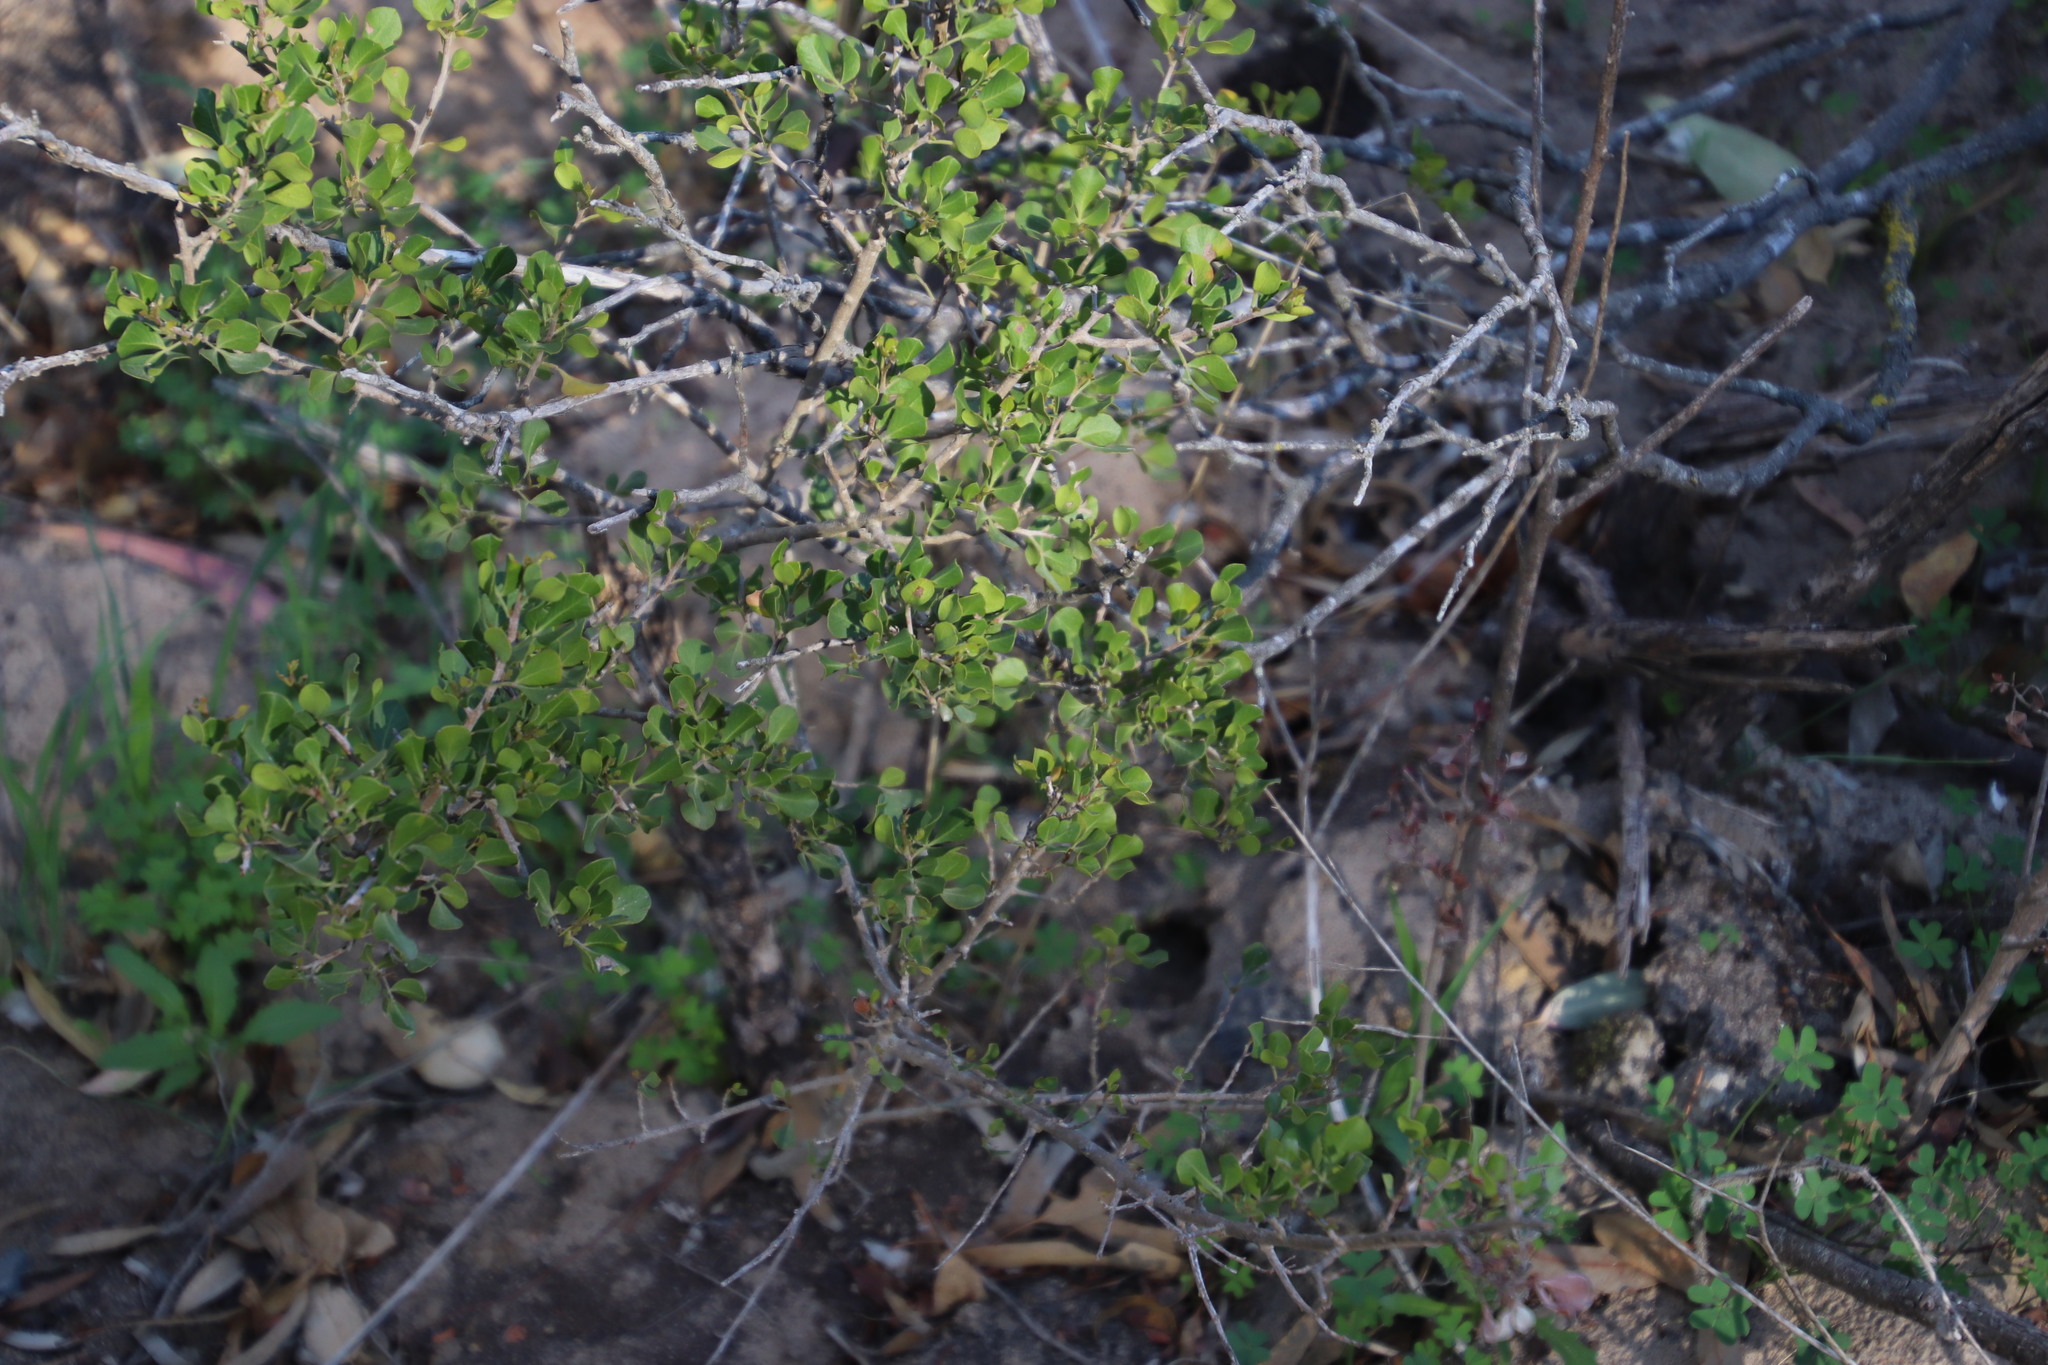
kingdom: Plantae
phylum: Tracheophyta
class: Magnoliopsida
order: Sapindales
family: Anacardiaceae
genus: Searsia
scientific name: Searsia glauca
